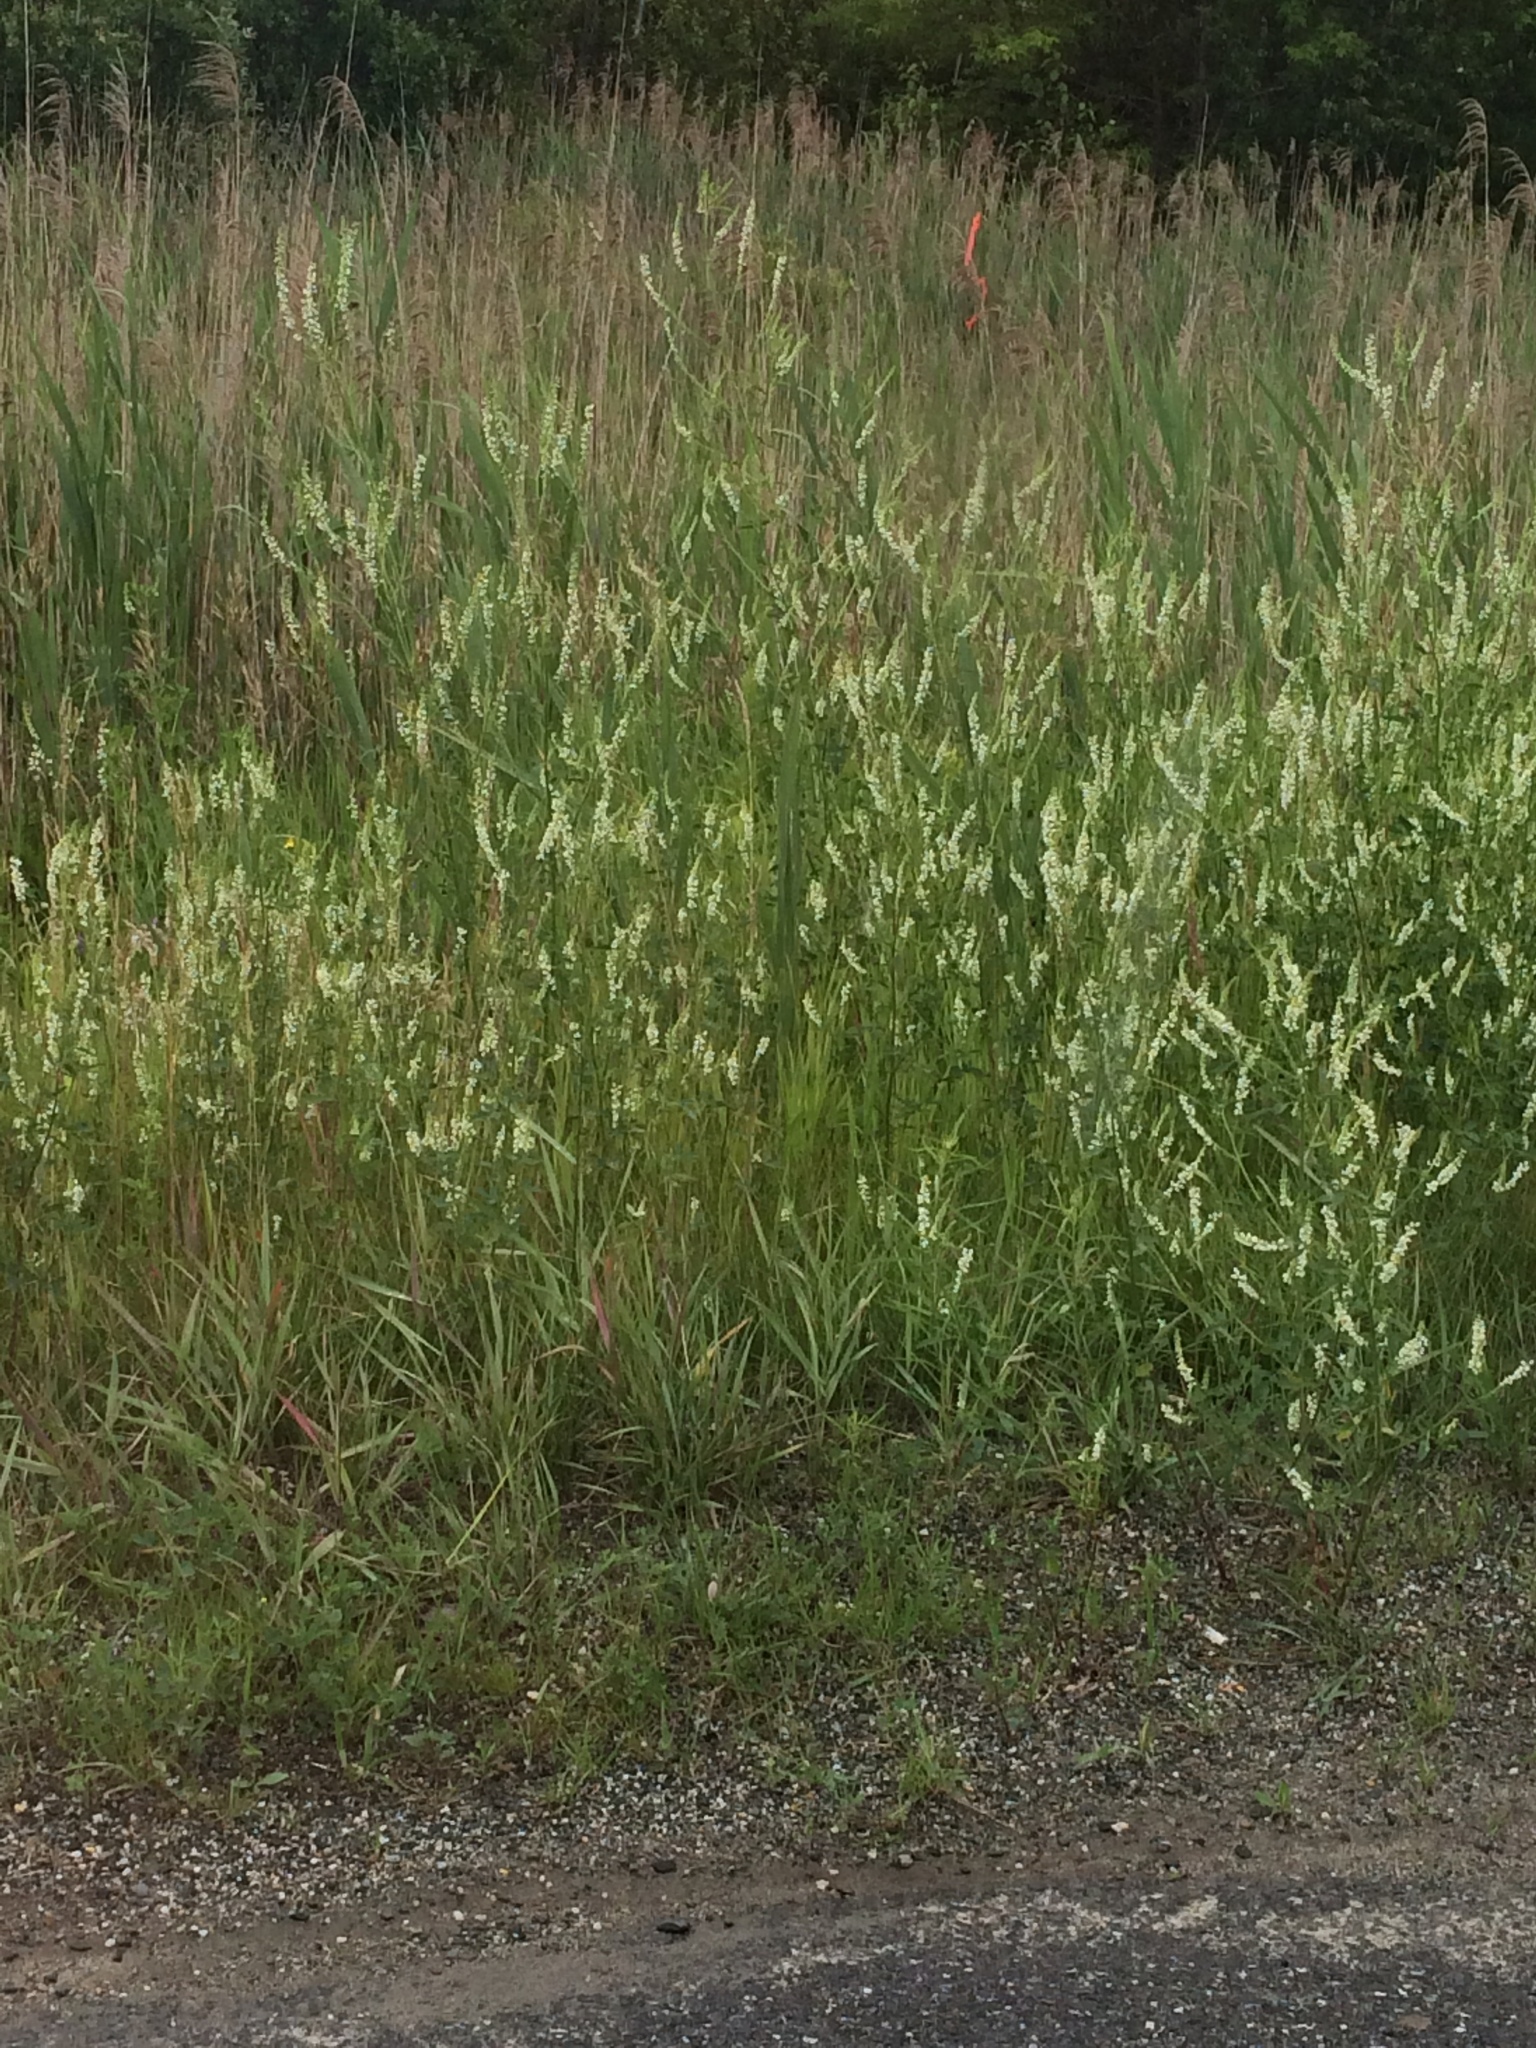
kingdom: Plantae
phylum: Tracheophyta
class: Magnoliopsida
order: Fabales
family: Fabaceae
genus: Melilotus
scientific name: Melilotus albus
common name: White melilot
